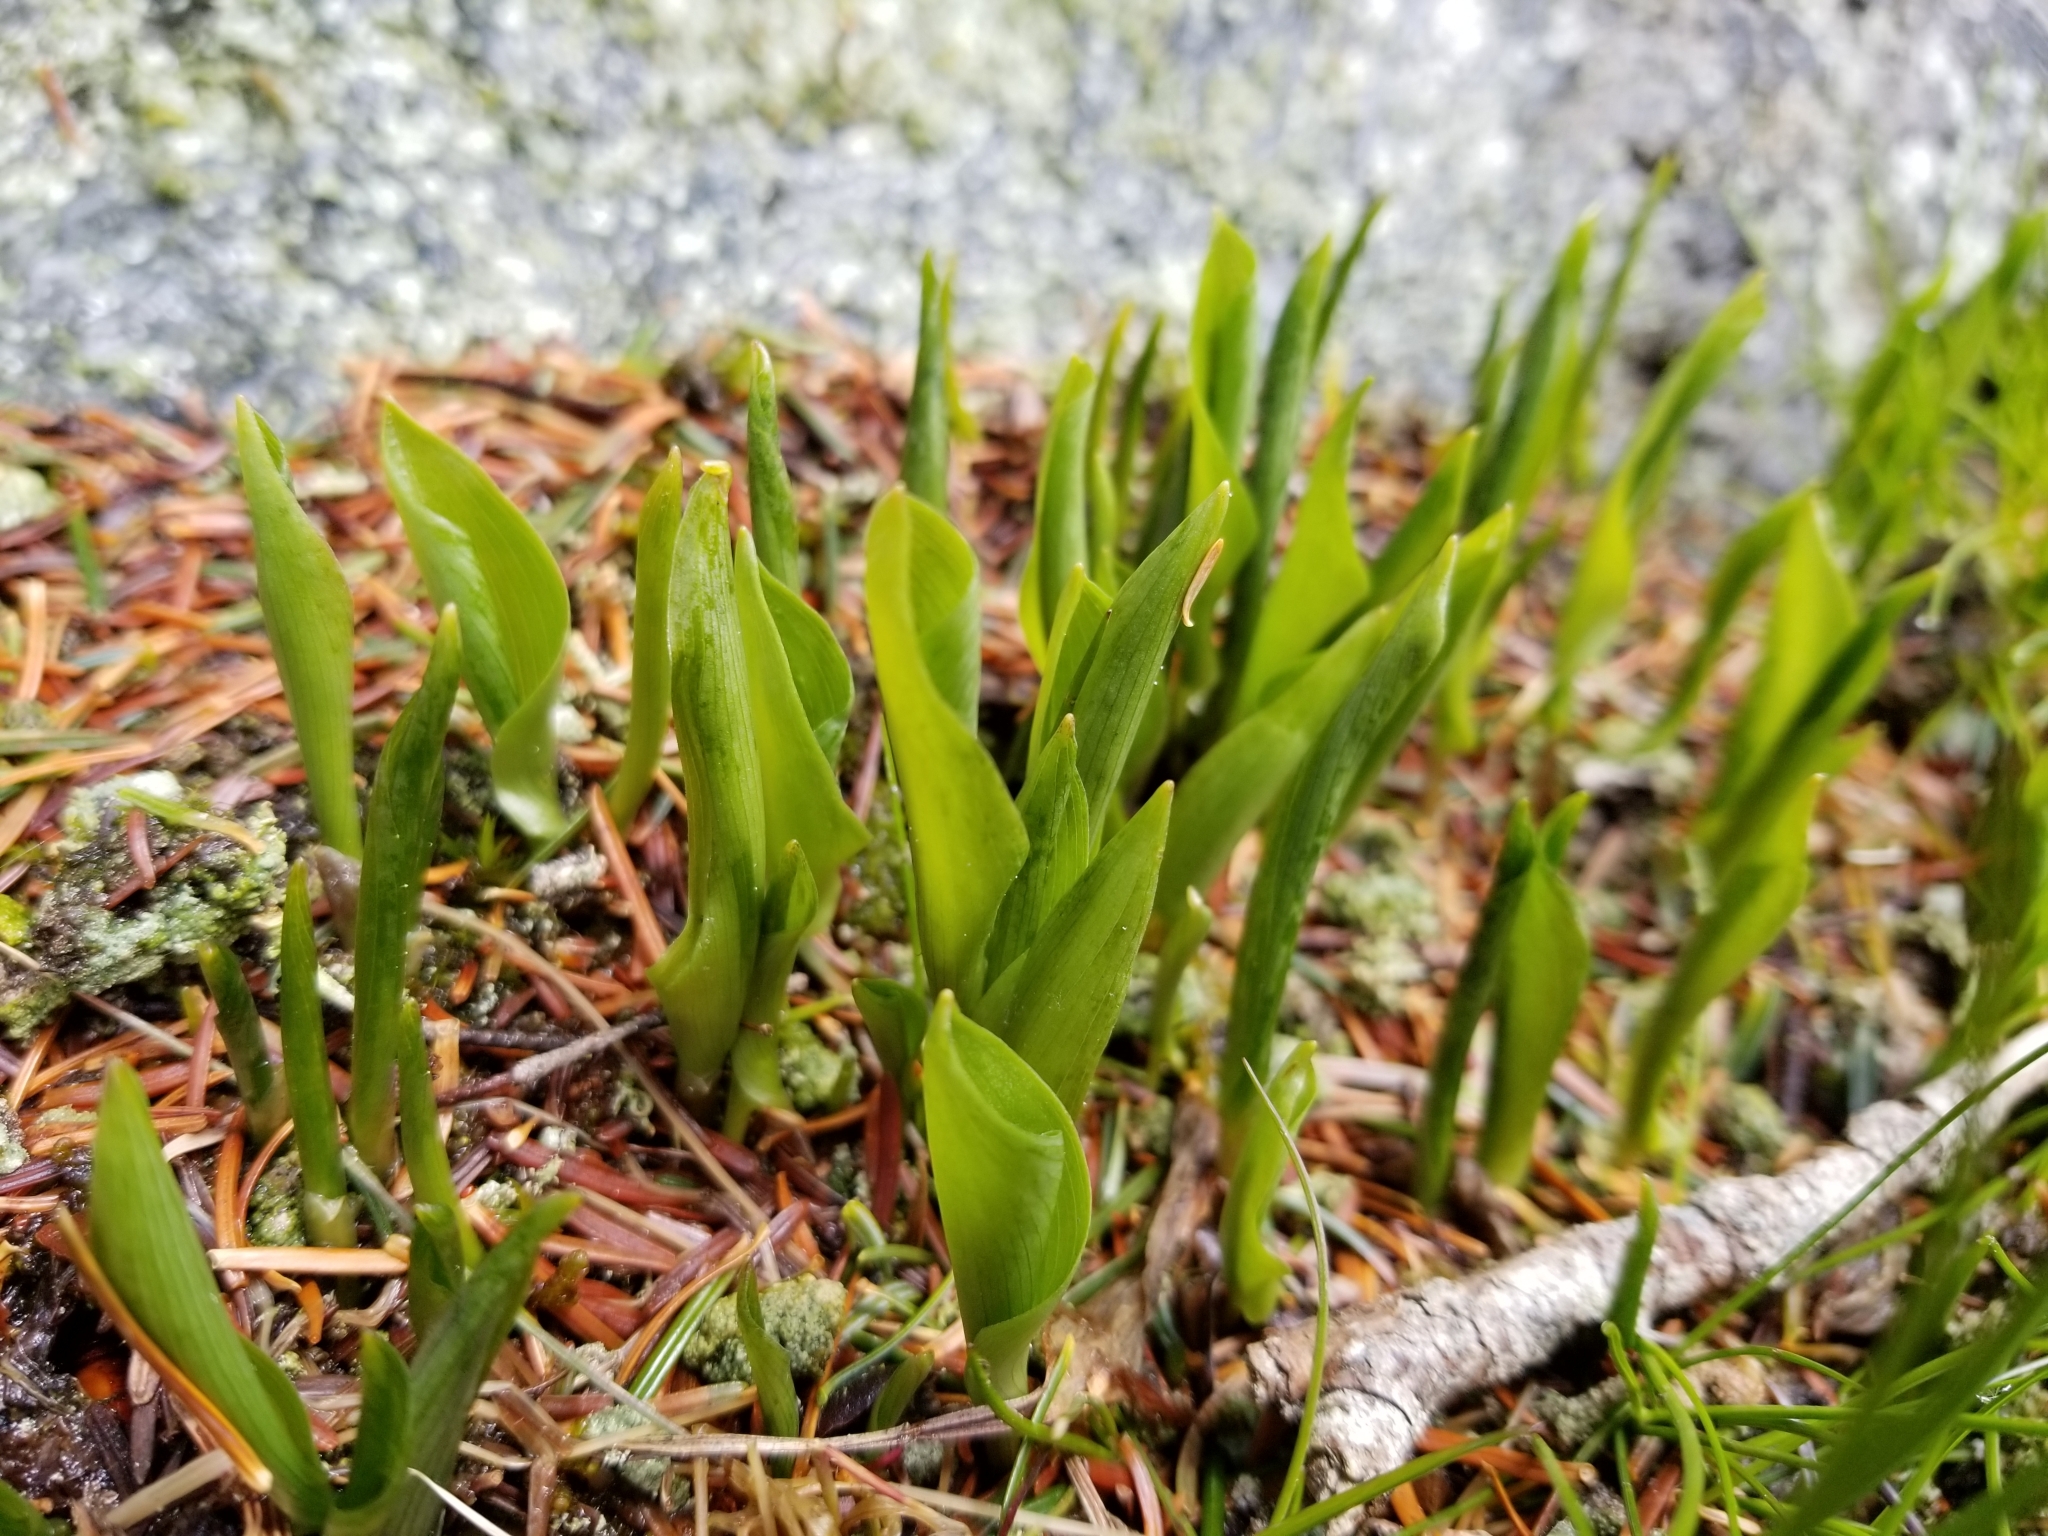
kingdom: Plantae
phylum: Tracheophyta
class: Liliopsida
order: Liliales
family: Liliaceae
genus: Clintonia
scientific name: Clintonia borealis
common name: Yellow clintonia
